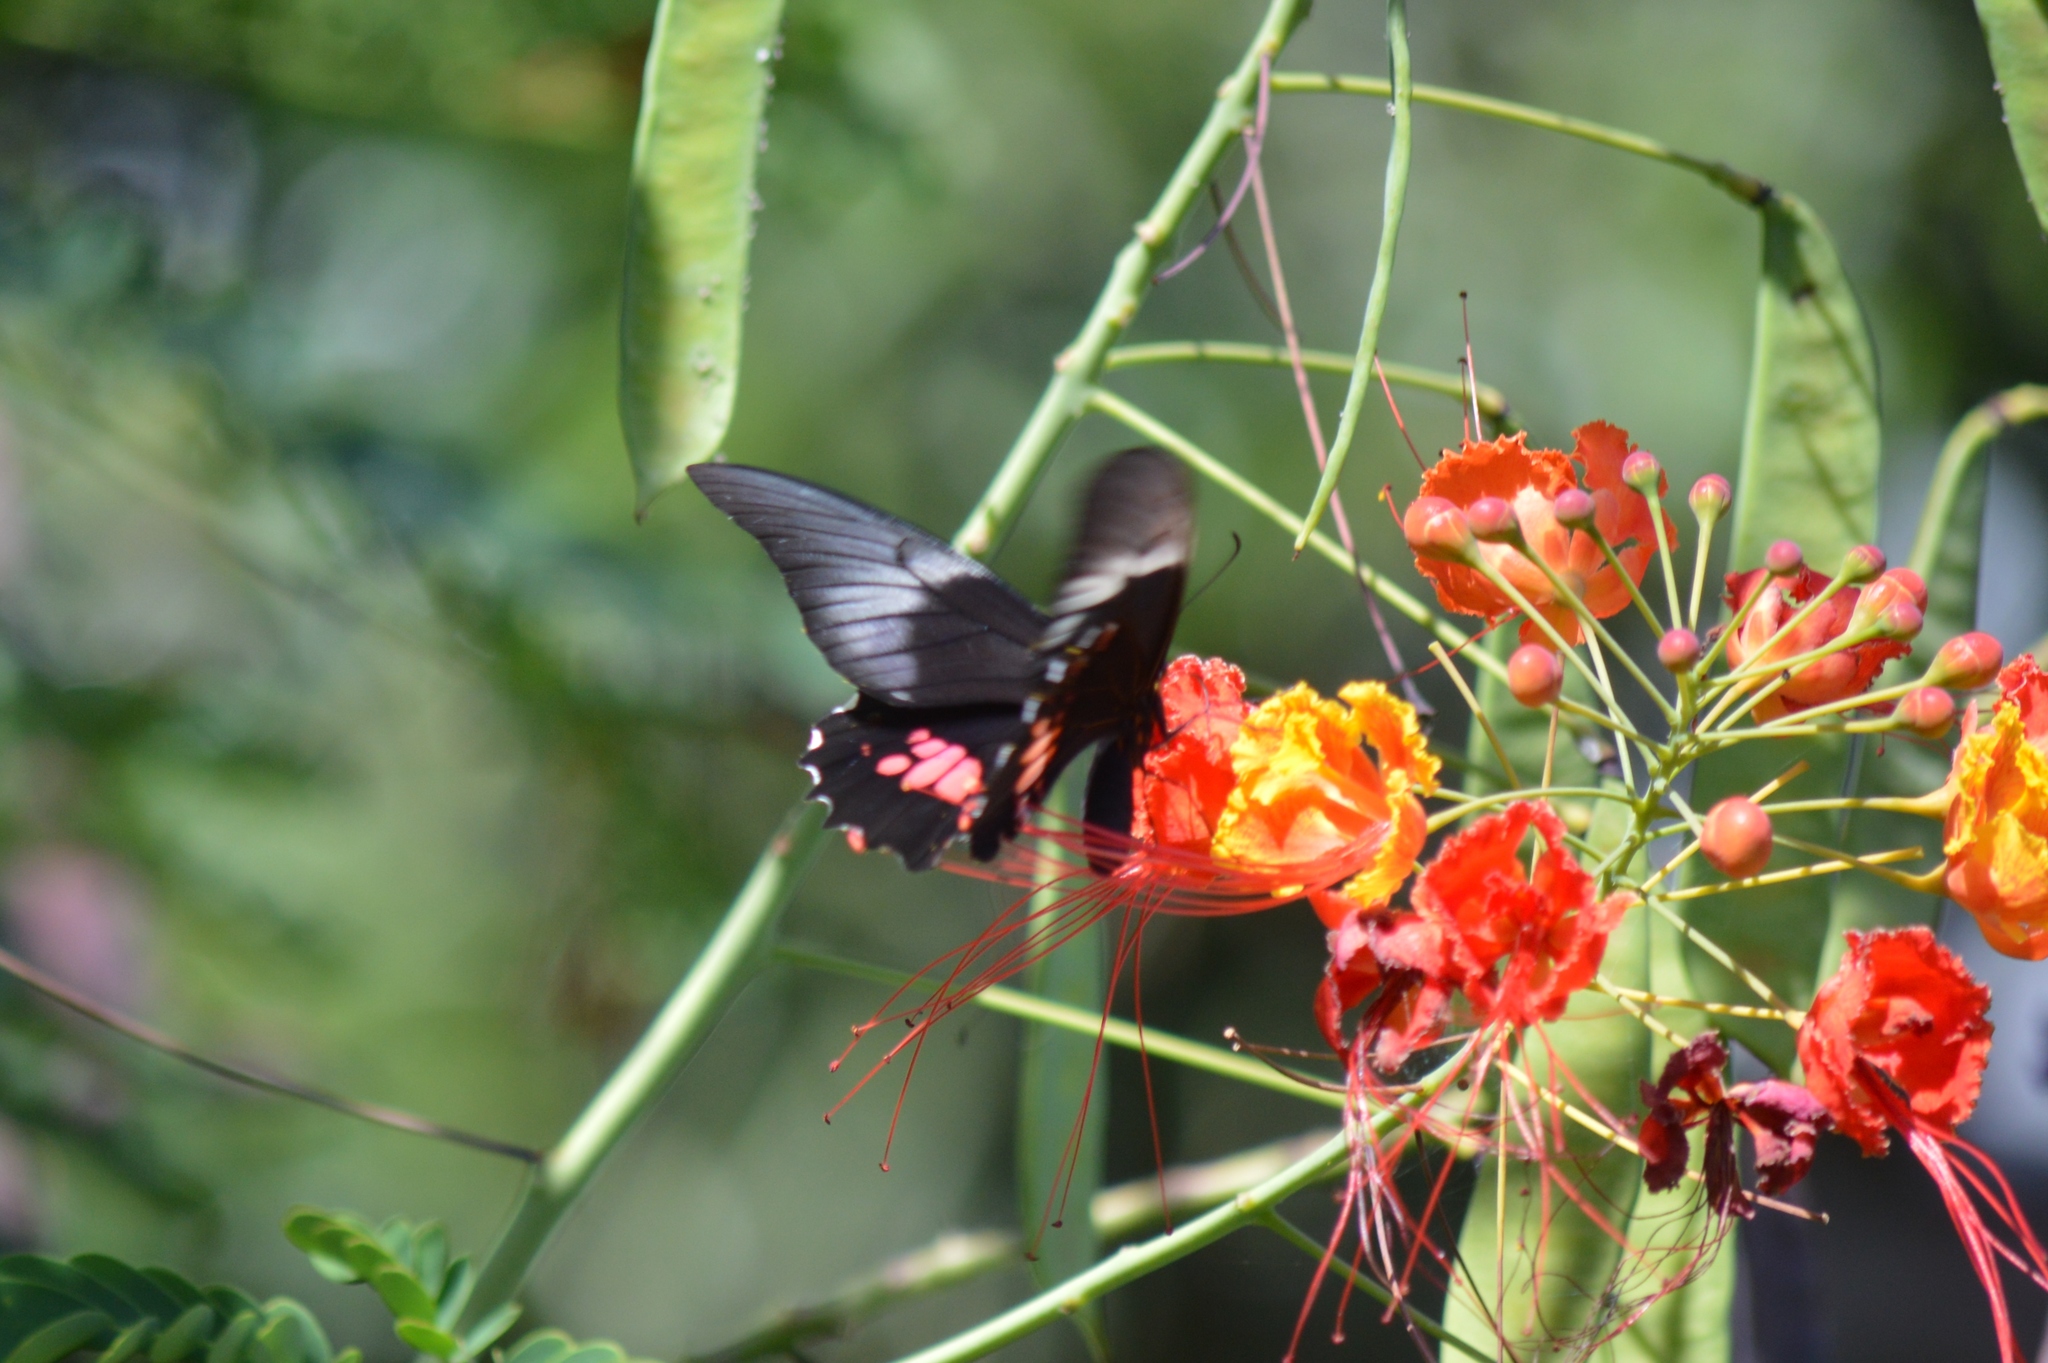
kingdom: Animalia
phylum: Arthropoda
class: Insecta
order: Lepidoptera
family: Papilionidae
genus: Papilio
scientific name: Papilio anchisiades
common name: Idaes swallowtail
